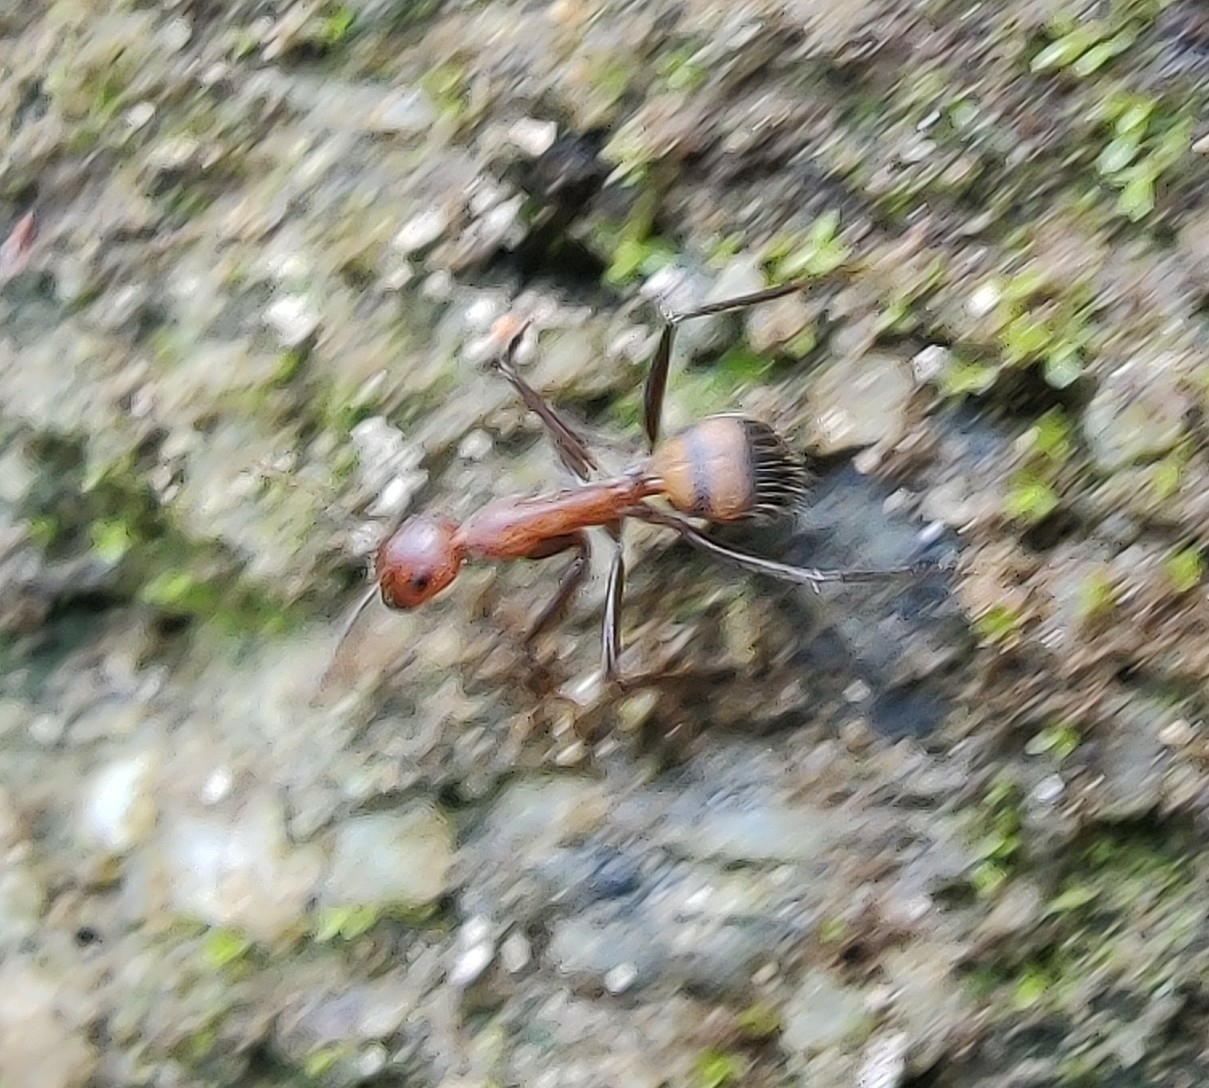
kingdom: Animalia
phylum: Arthropoda
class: Insecta
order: Hymenoptera
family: Formicidae
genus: Camponotus
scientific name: Camponotus nicobarensis
